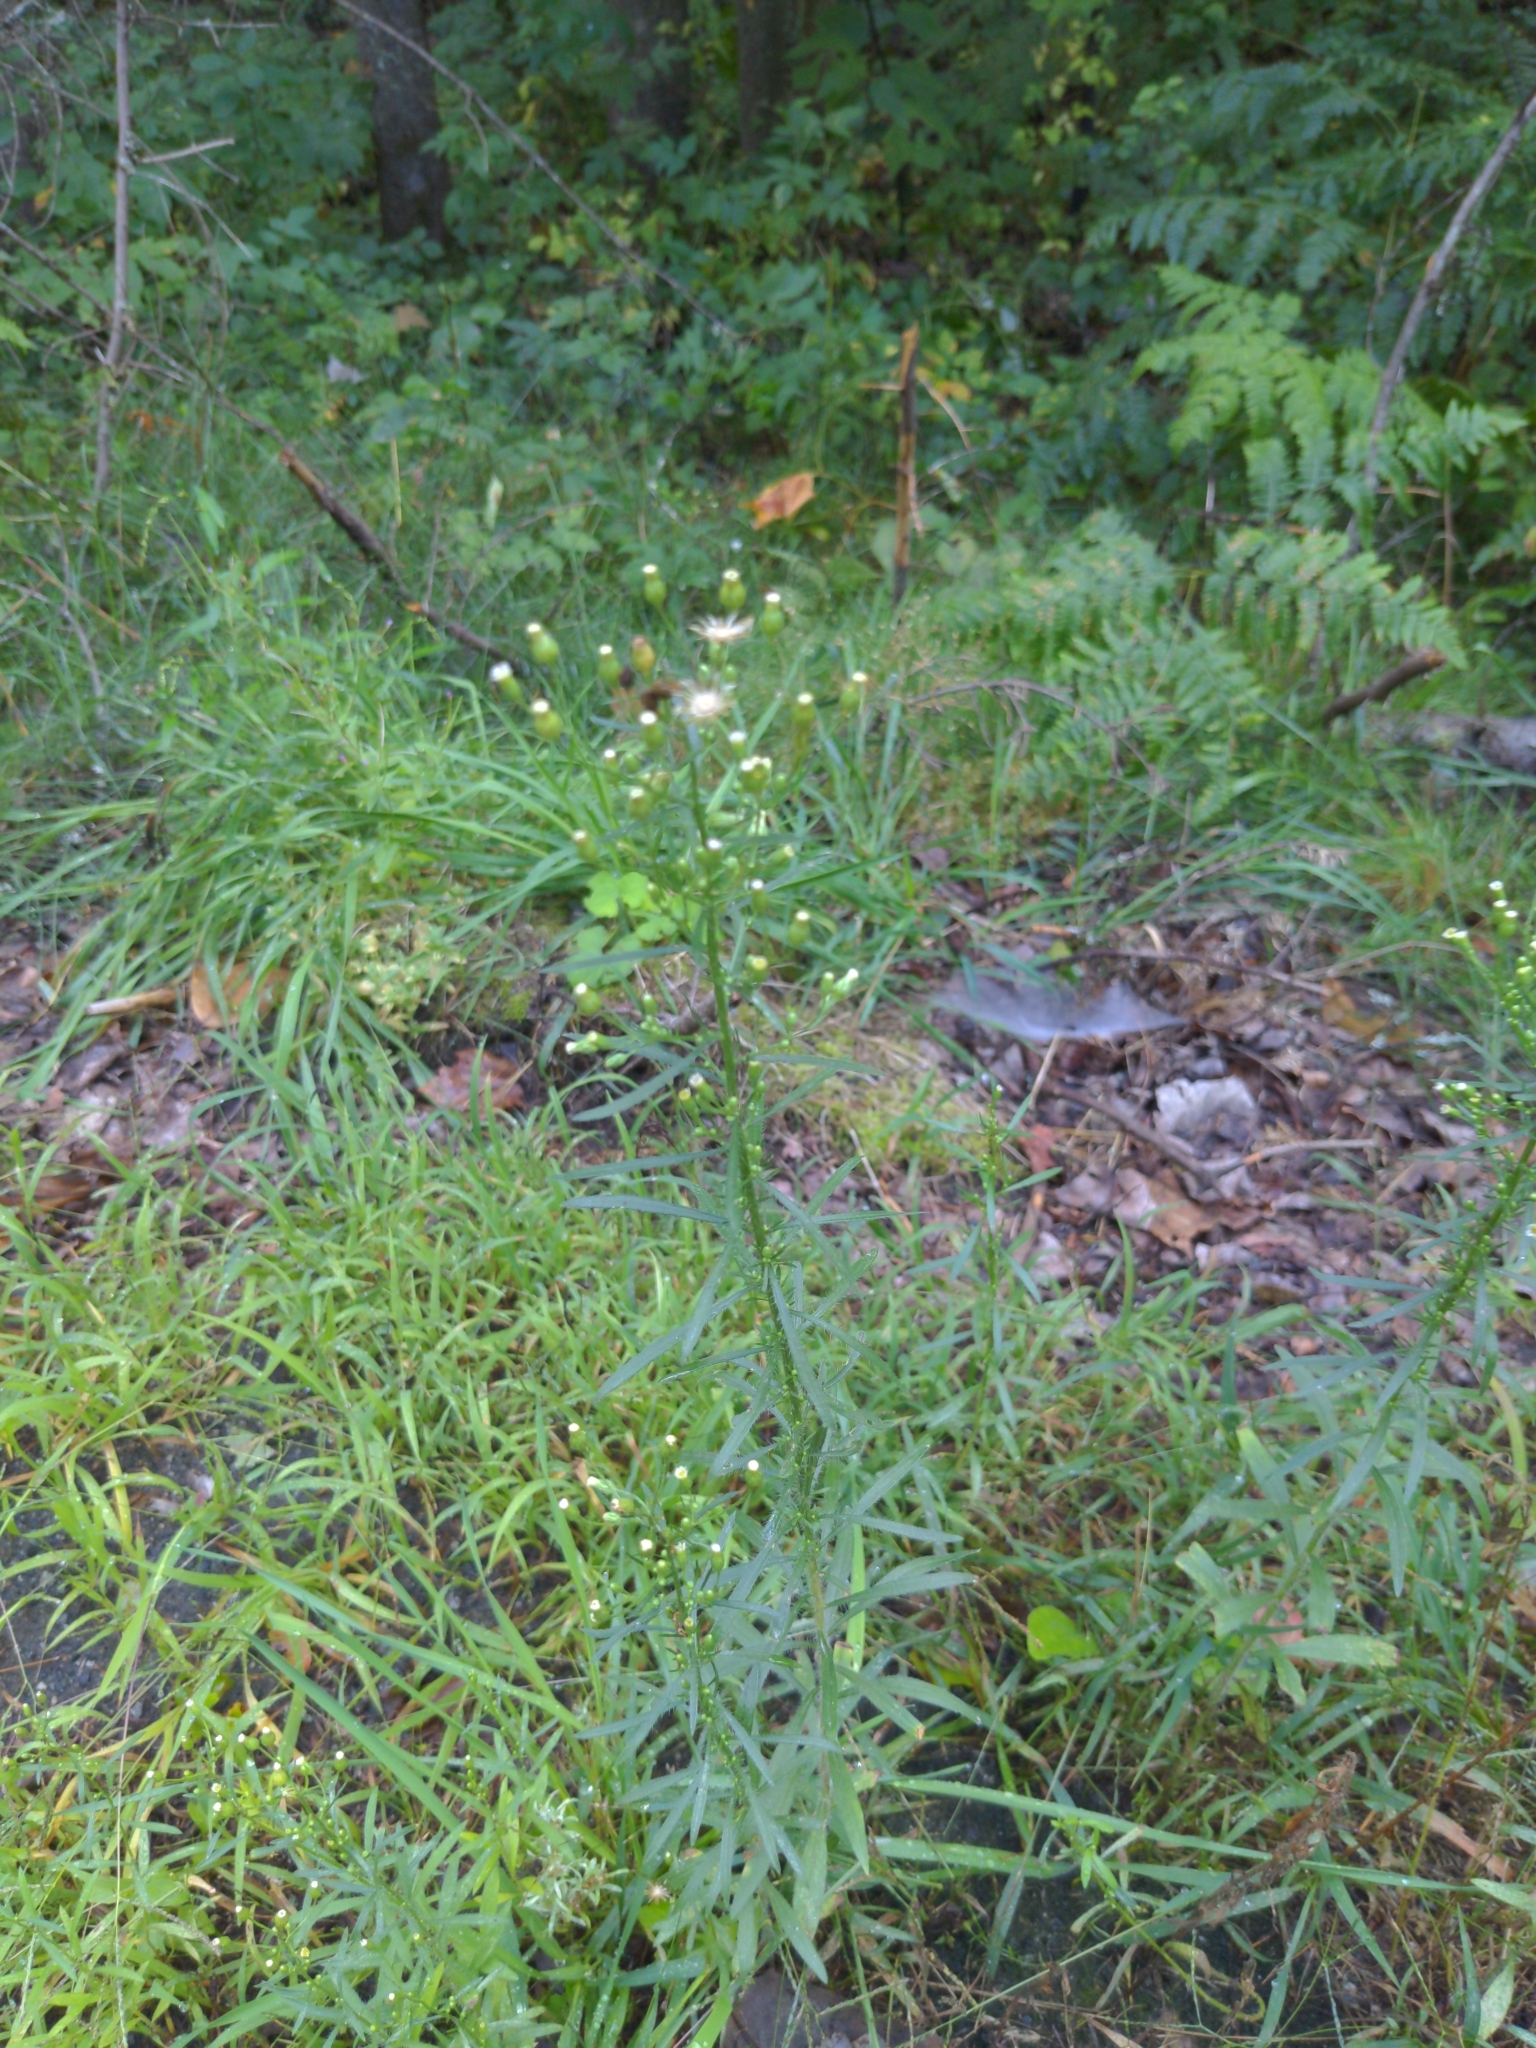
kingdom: Plantae
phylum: Tracheophyta
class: Magnoliopsida
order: Asterales
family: Asteraceae
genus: Erigeron
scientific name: Erigeron canadensis
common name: Canadian fleabane
